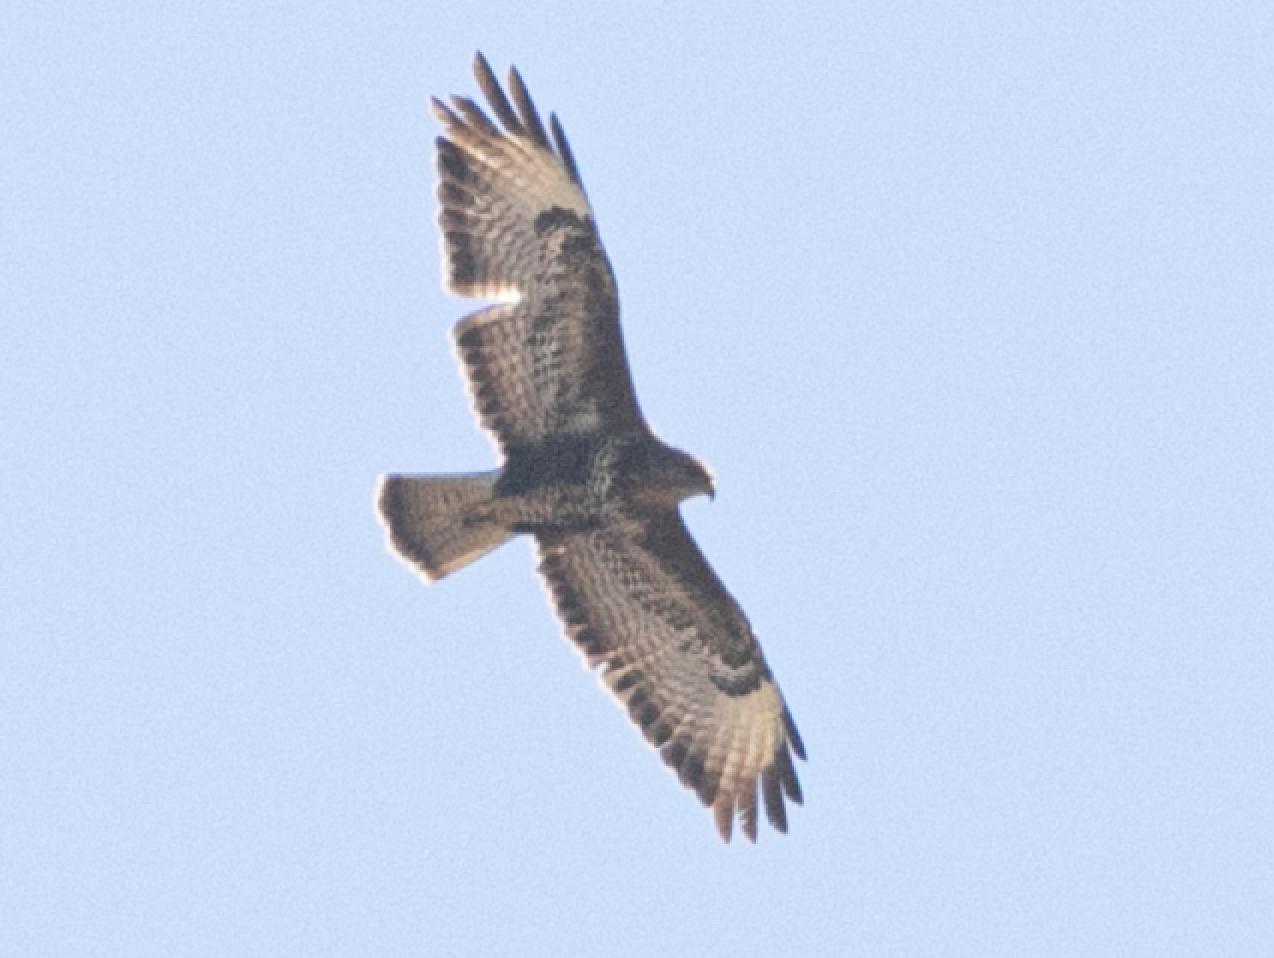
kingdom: Animalia
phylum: Chordata
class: Aves
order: Accipitriformes
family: Accipitridae
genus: Buteo
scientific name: Buteo buteo
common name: Common buzzard
